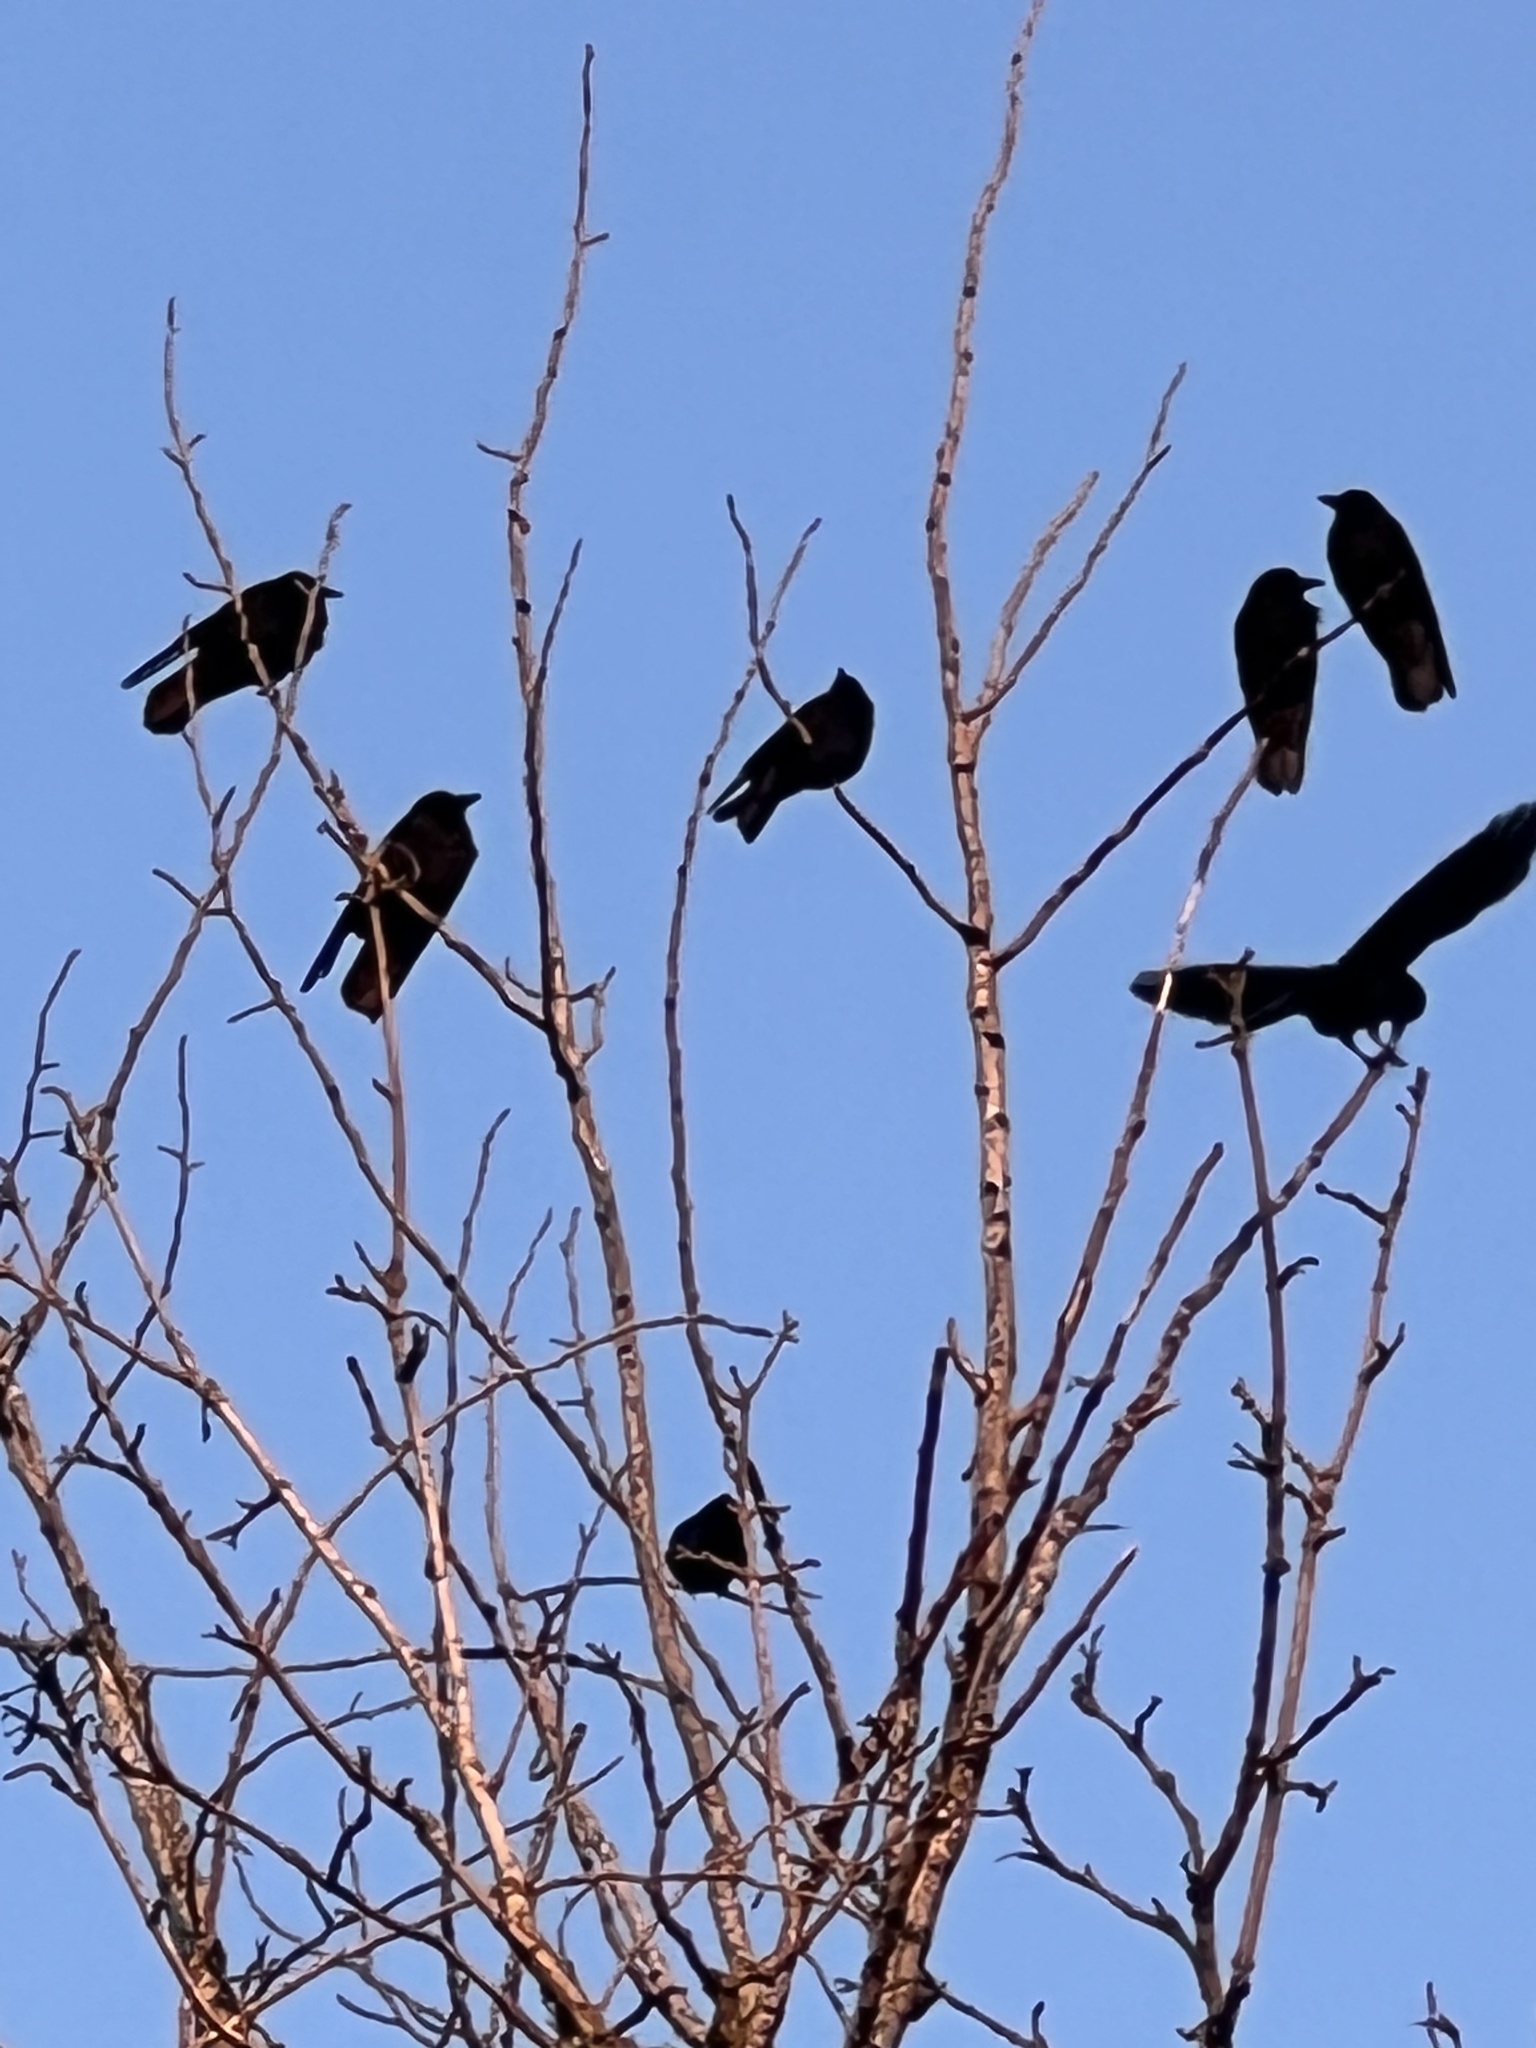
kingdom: Animalia
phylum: Chordata
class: Aves
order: Passeriformes
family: Corvidae
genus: Corvus
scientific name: Corvus brachyrhynchos
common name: American crow
